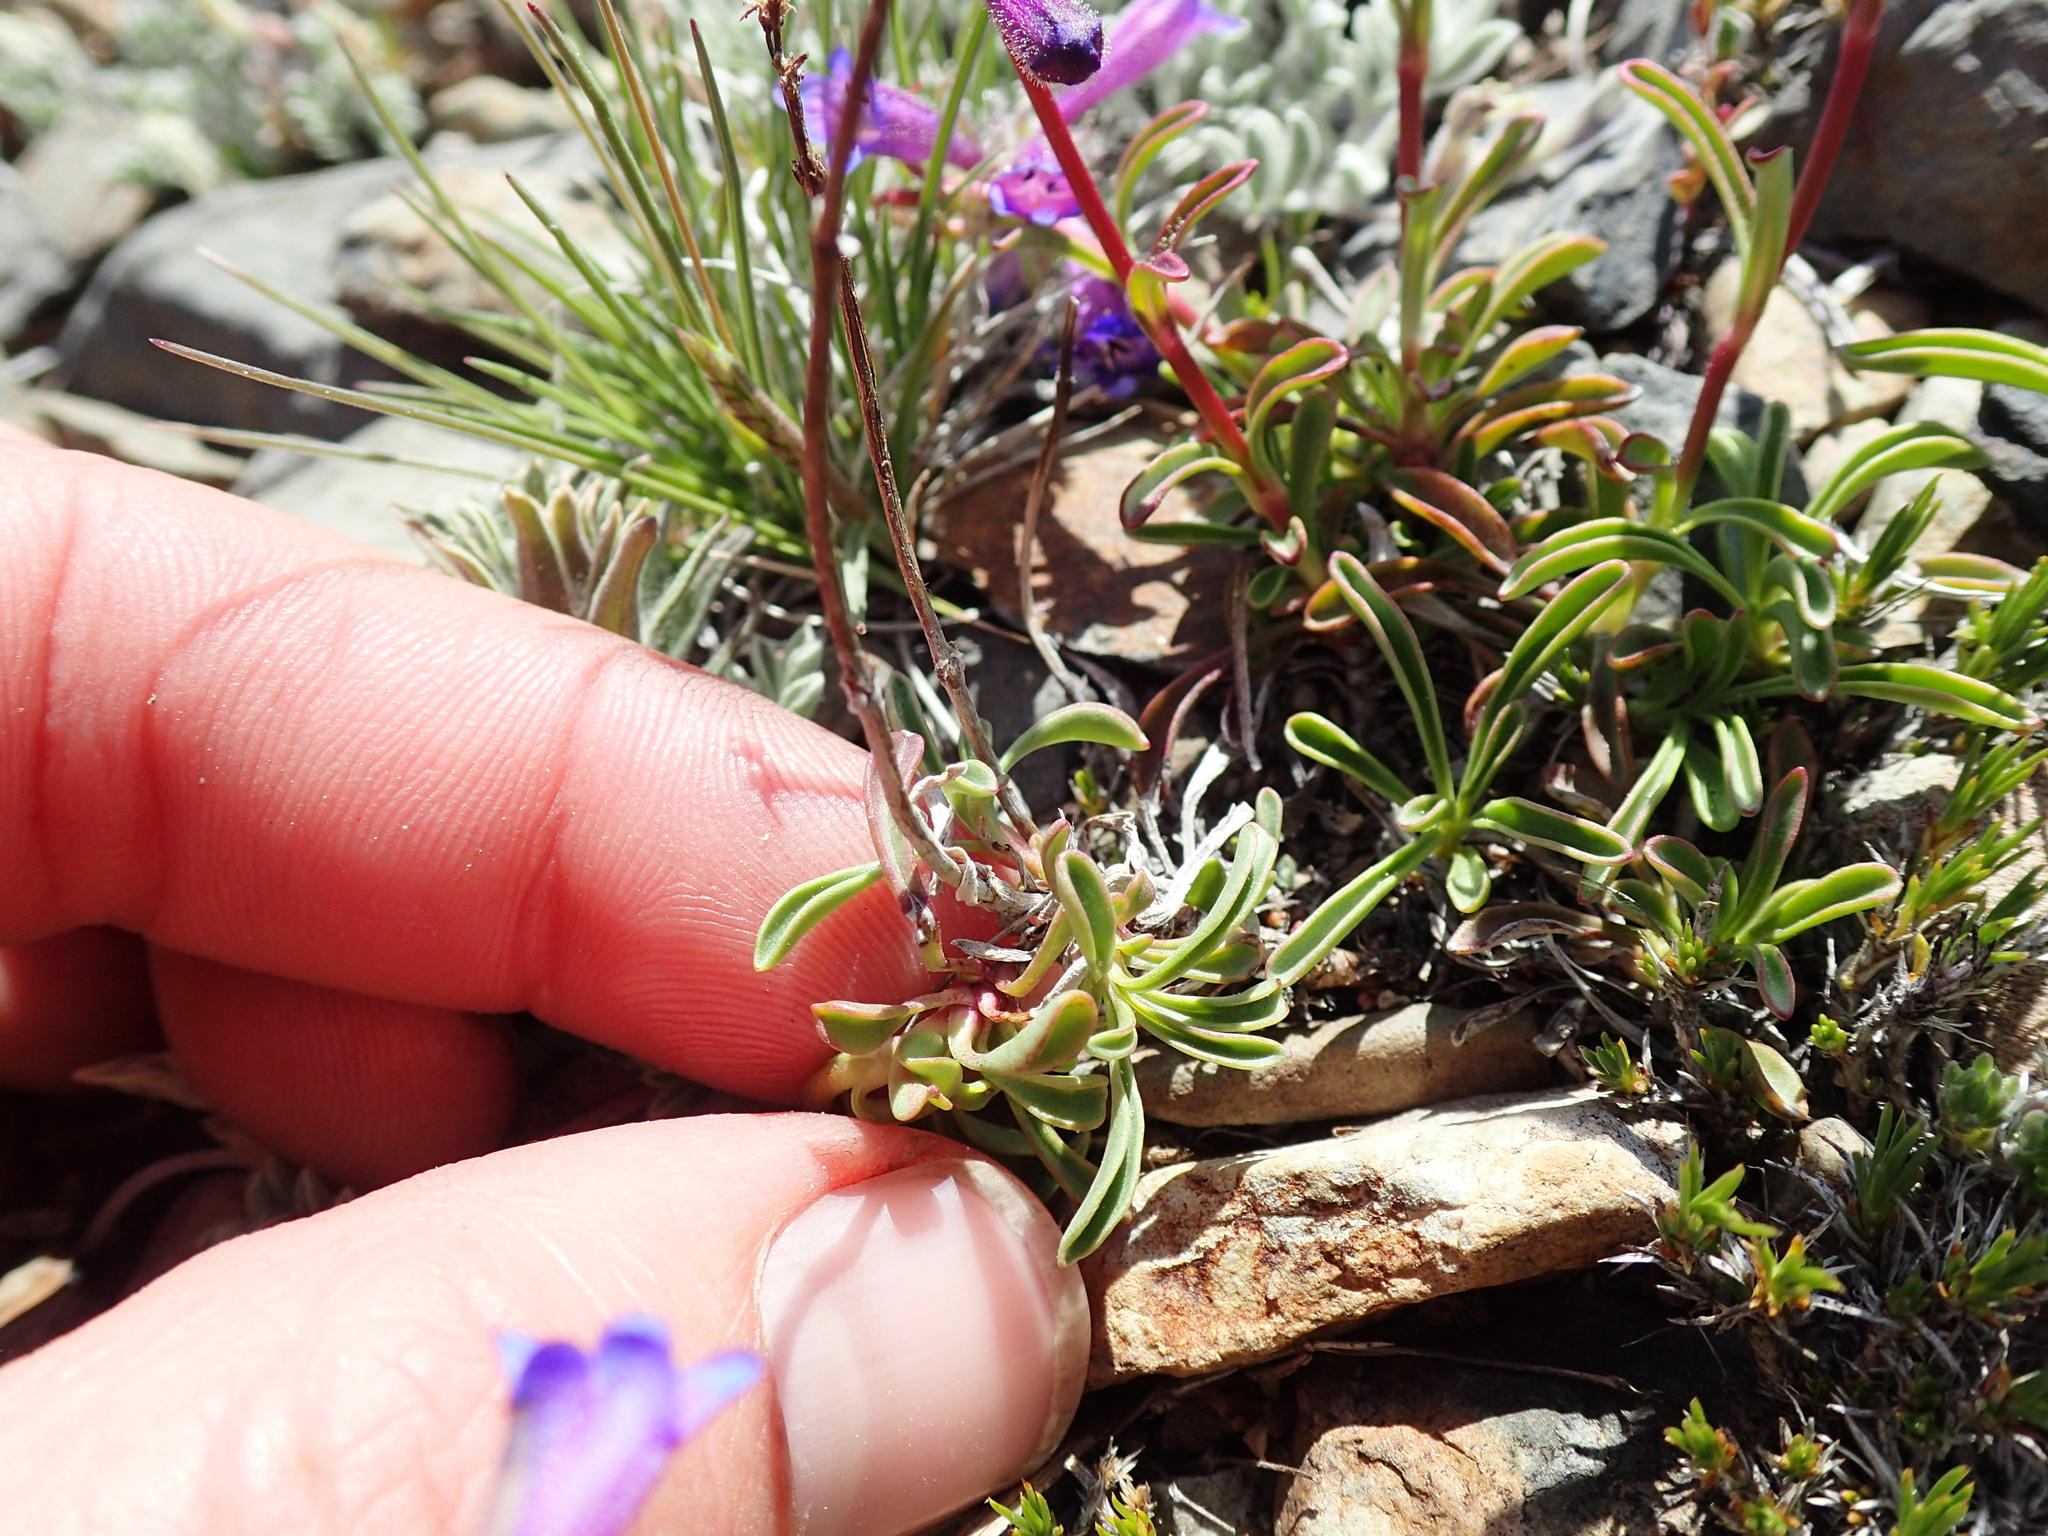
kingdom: Plantae
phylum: Tracheophyta
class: Magnoliopsida
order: Lamiales
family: Plantaginaceae
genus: Penstemon
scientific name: Penstemon heterodoxus
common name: Sierran penstemon
